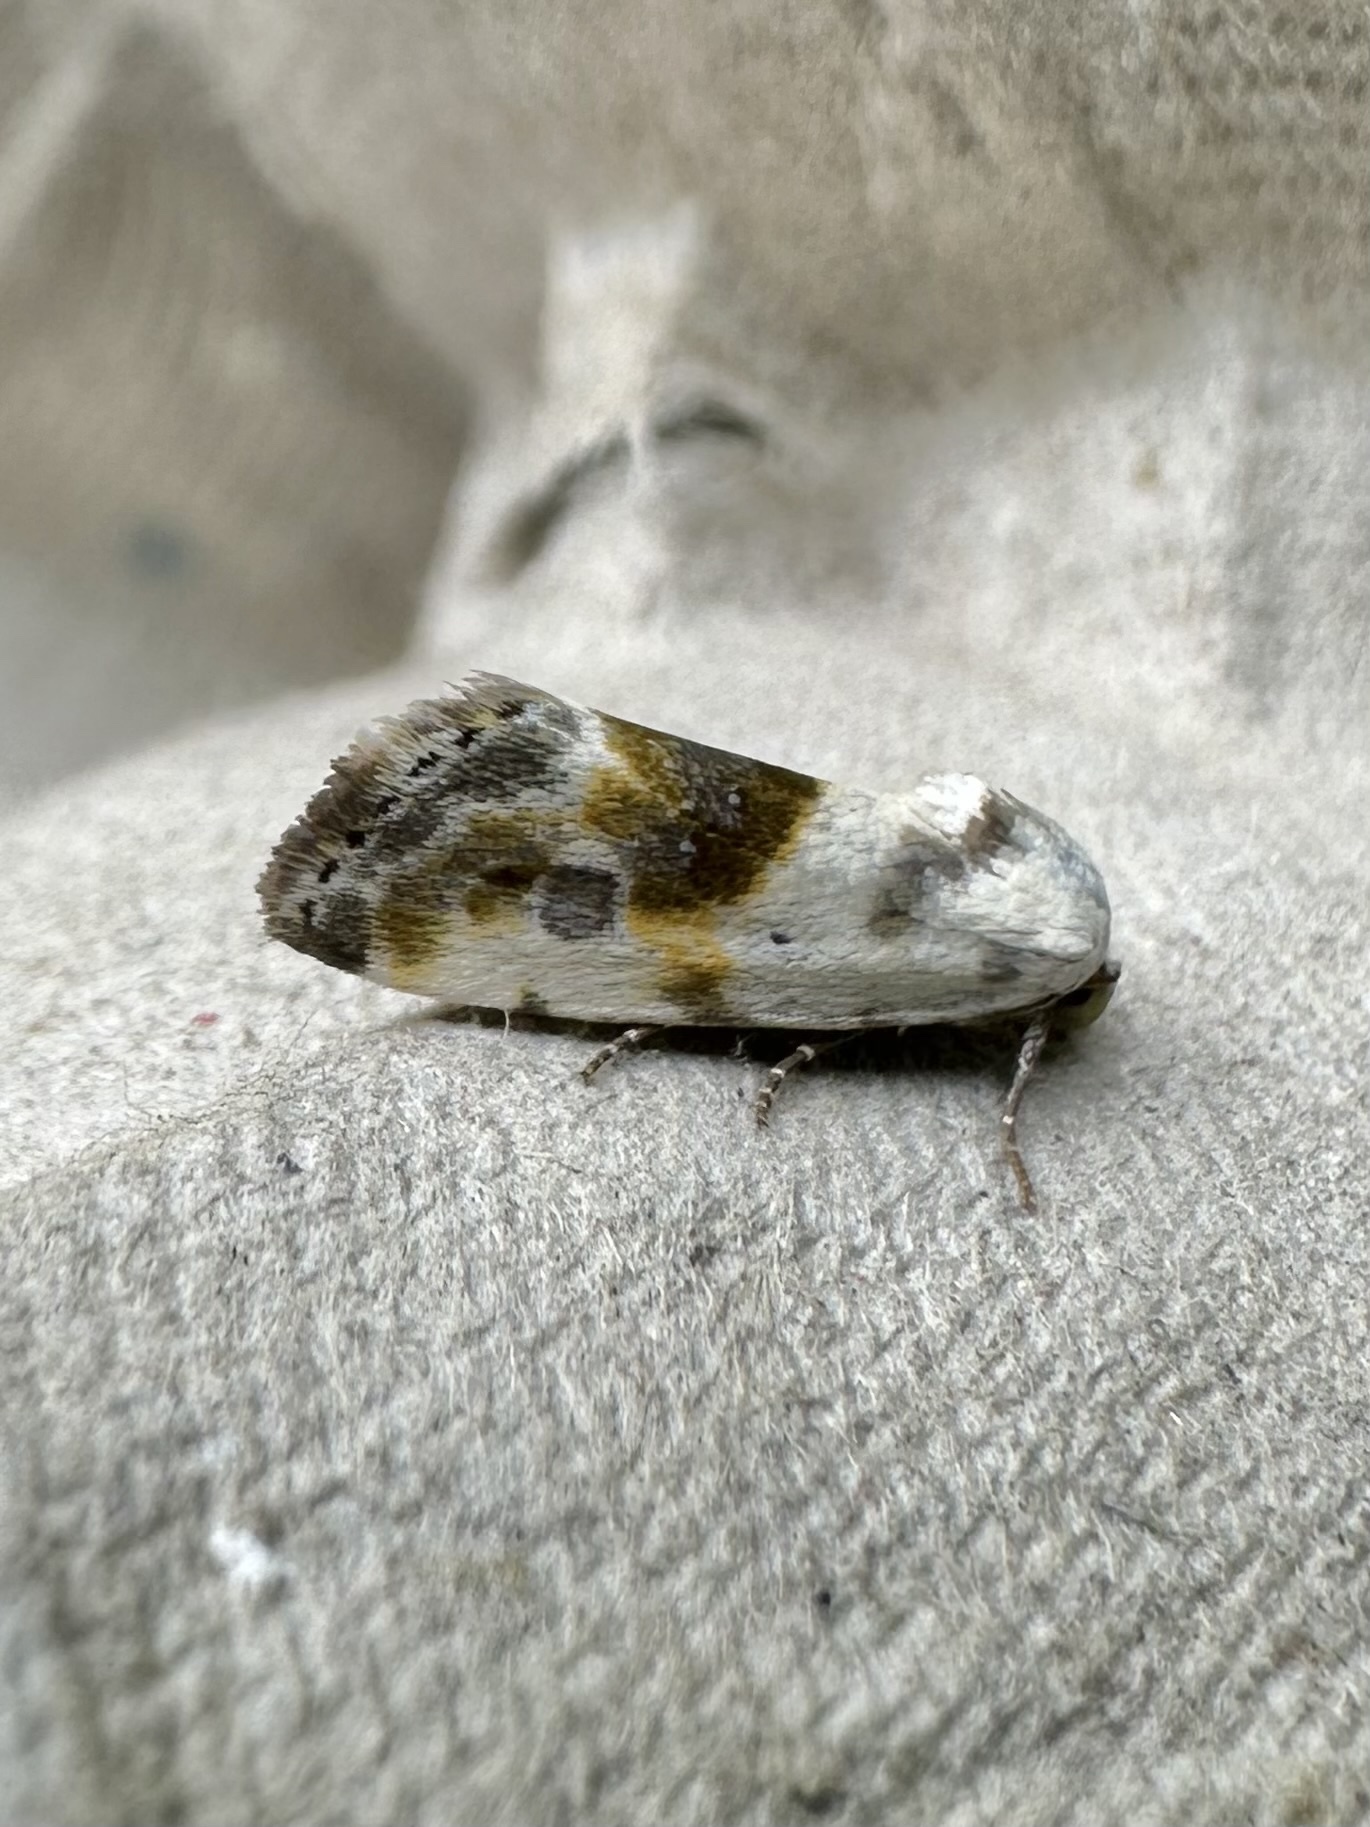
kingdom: Animalia
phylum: Arthropoda
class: Insecta
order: Lepidoptera
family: Noctuidae
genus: Acontia
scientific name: Acontia candefacta
